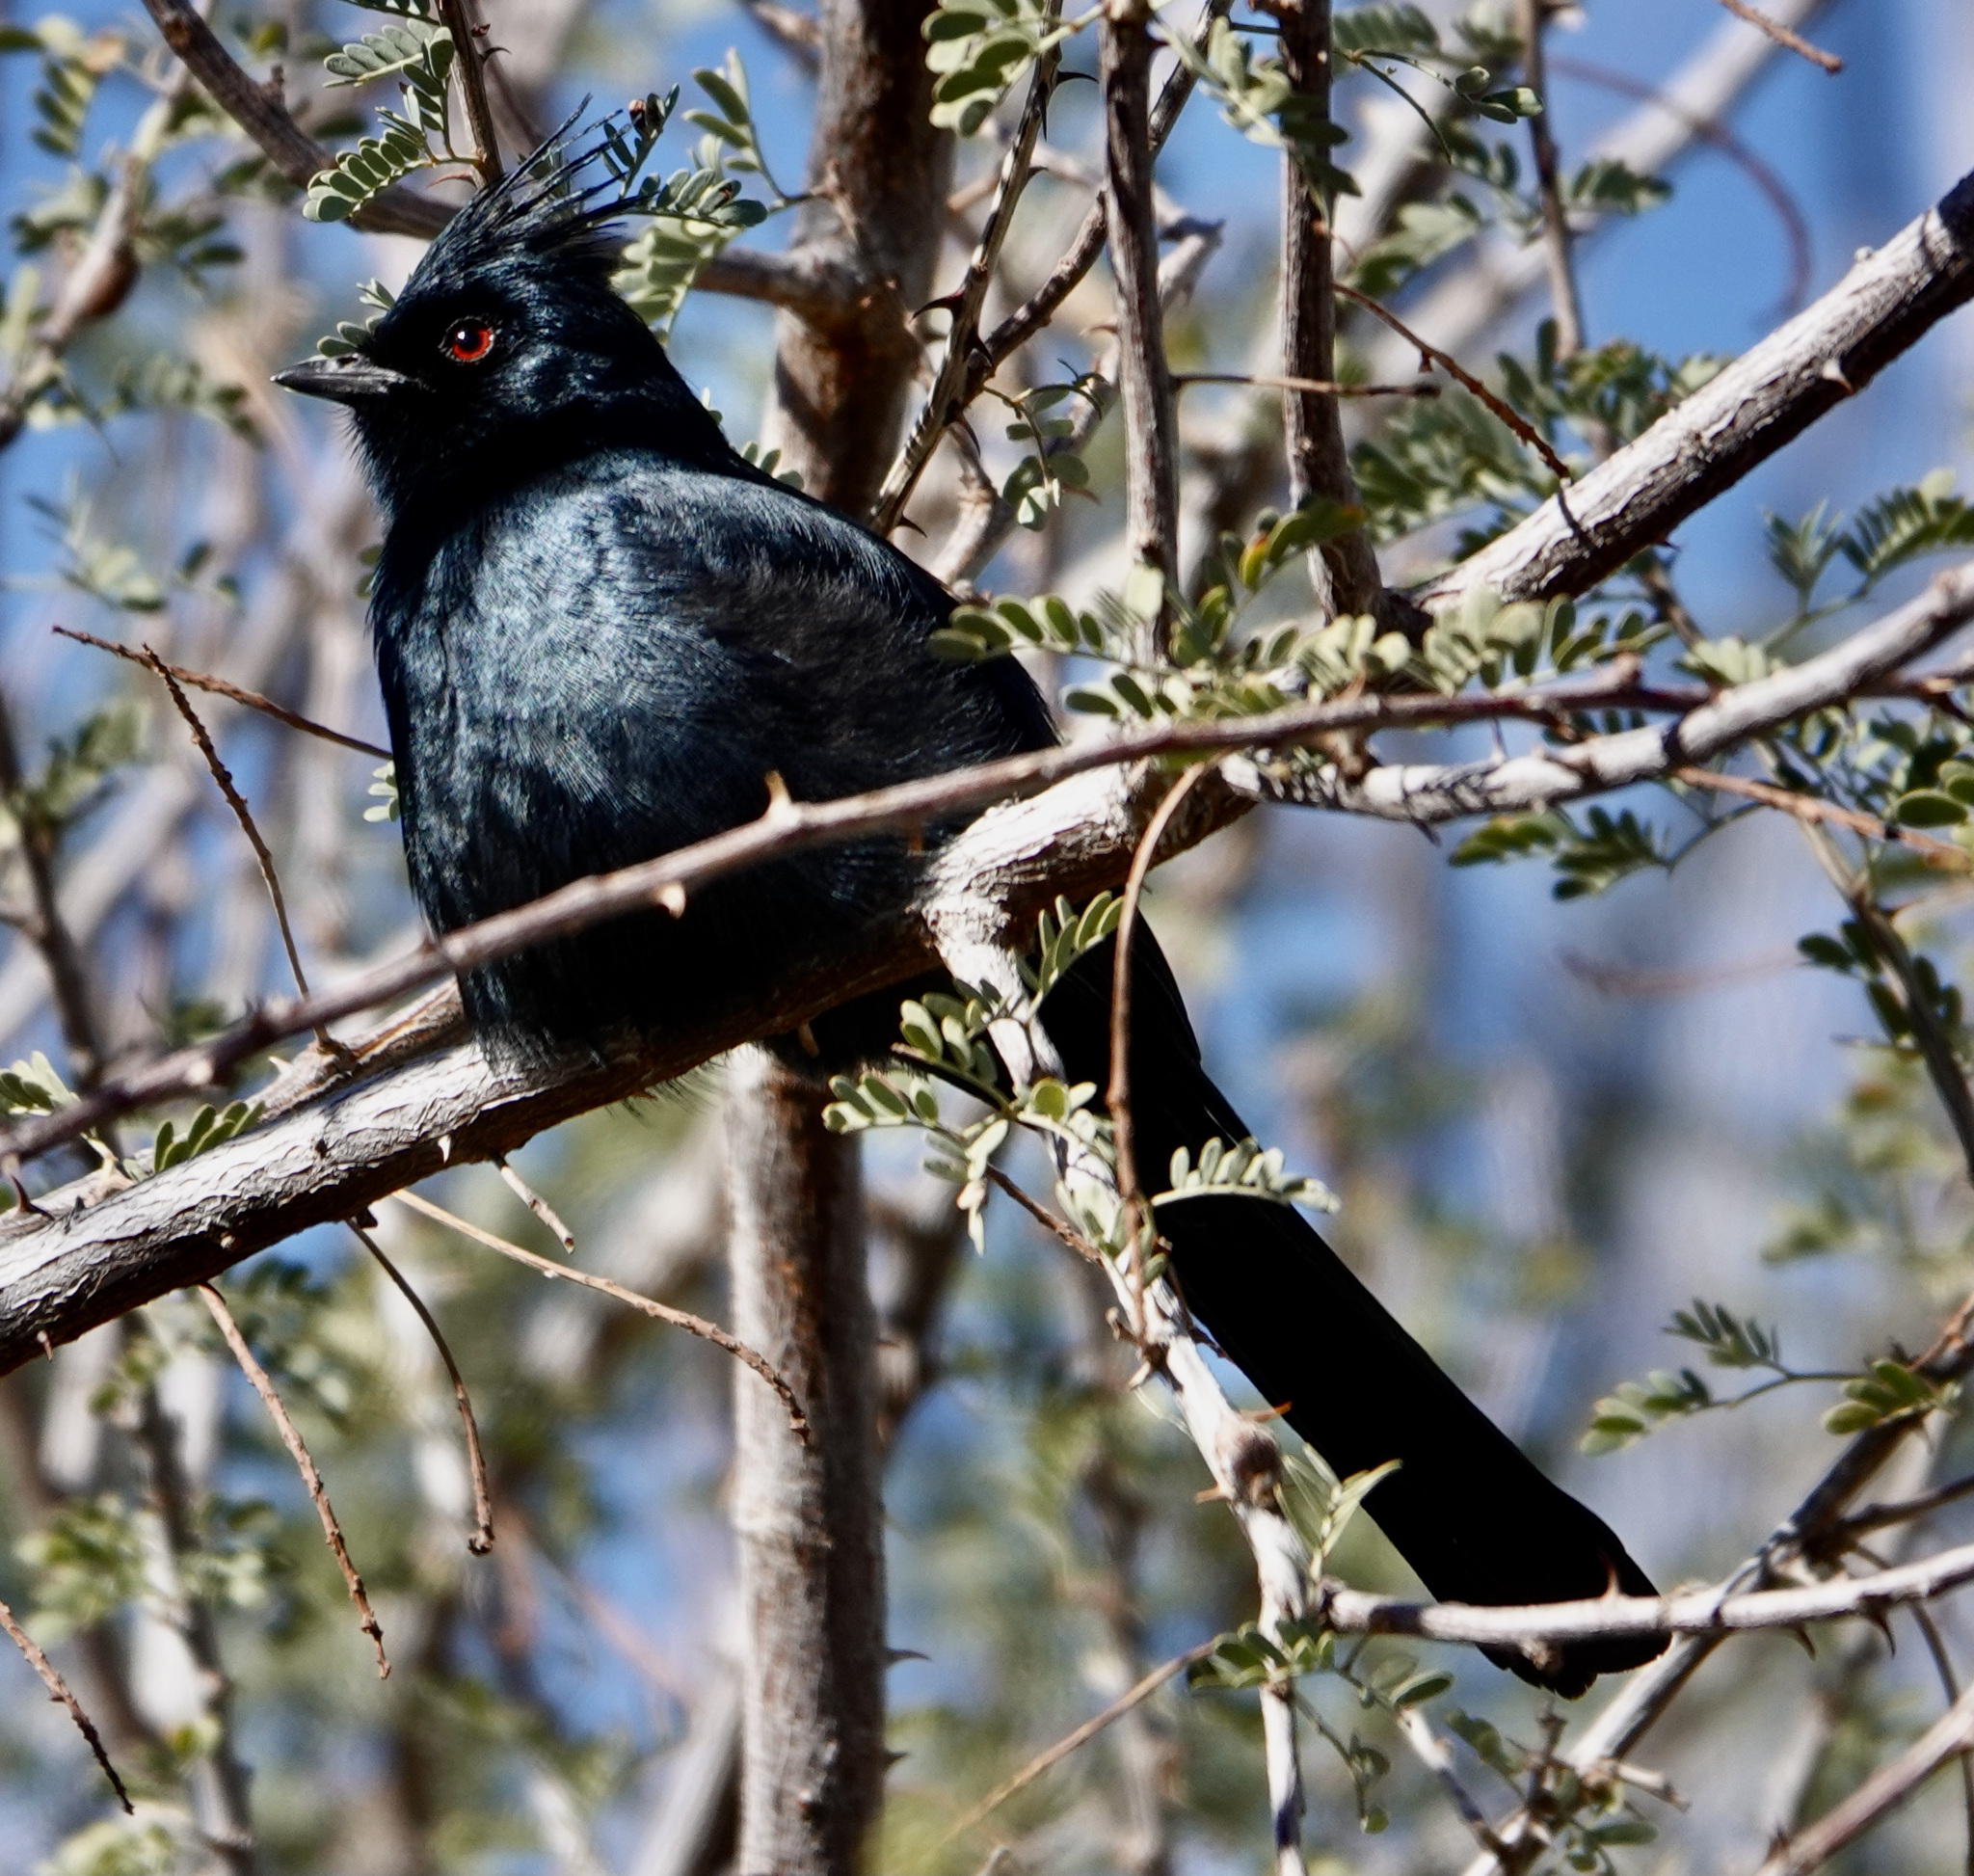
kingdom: Animalia
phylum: Chordata
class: Aves
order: Passeriformes
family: Ptilogonatidae
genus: Phainopepla
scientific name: Phainopepla nitens
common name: Phainopepla
